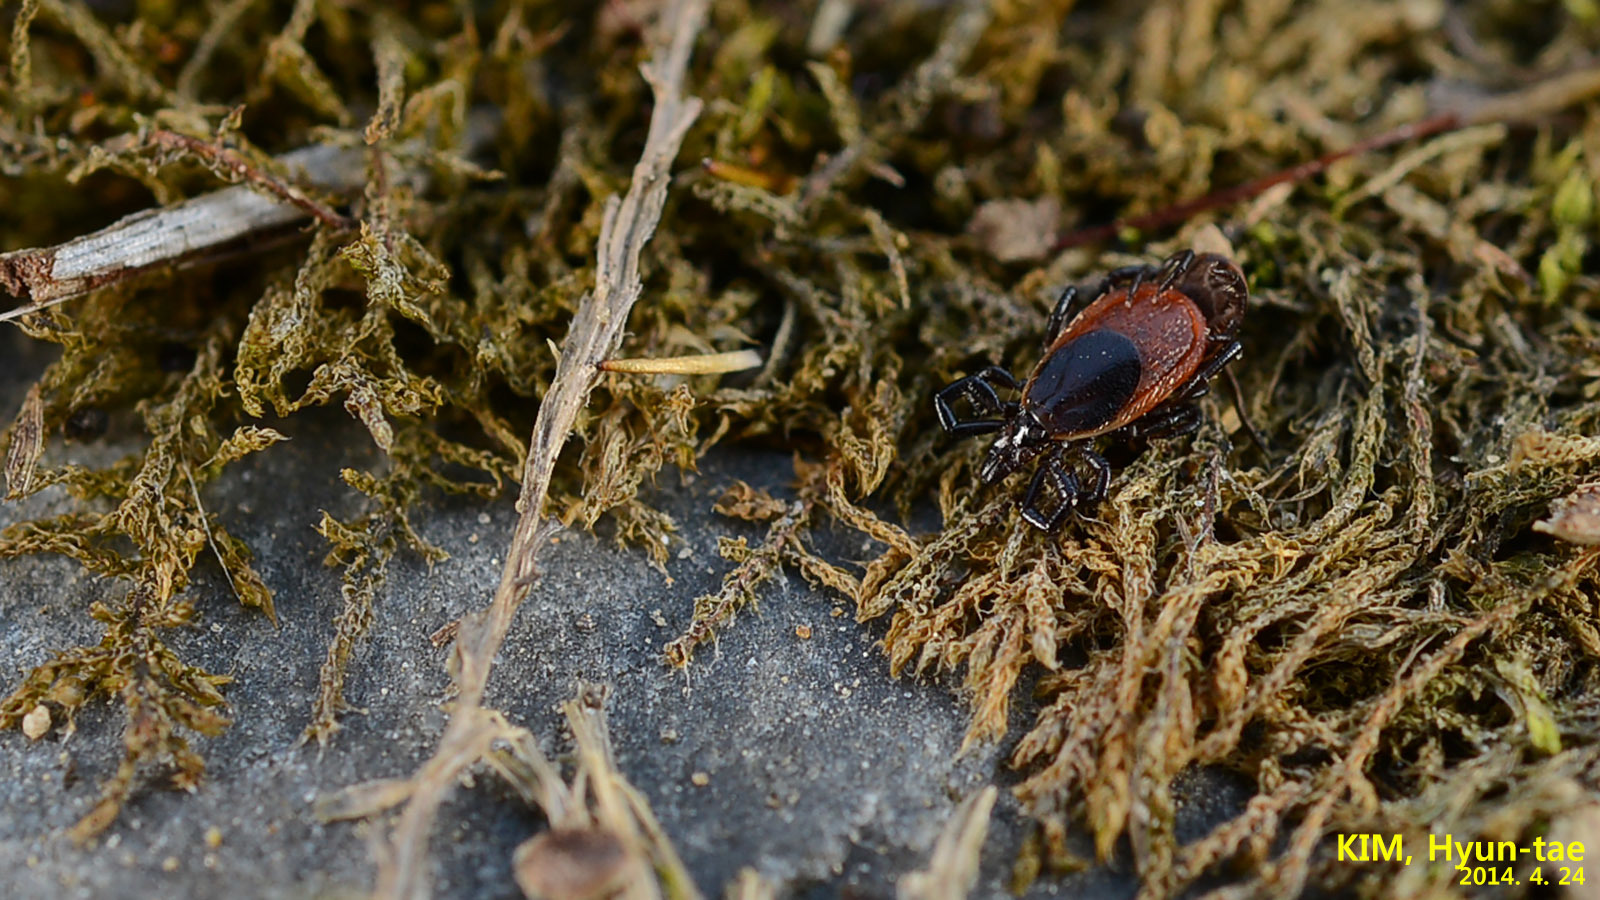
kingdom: Animalia
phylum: Arthropoda
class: Arachnida
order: Ixodida
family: Ixodidae
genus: Ixodes
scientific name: Ixodes nipponensis
